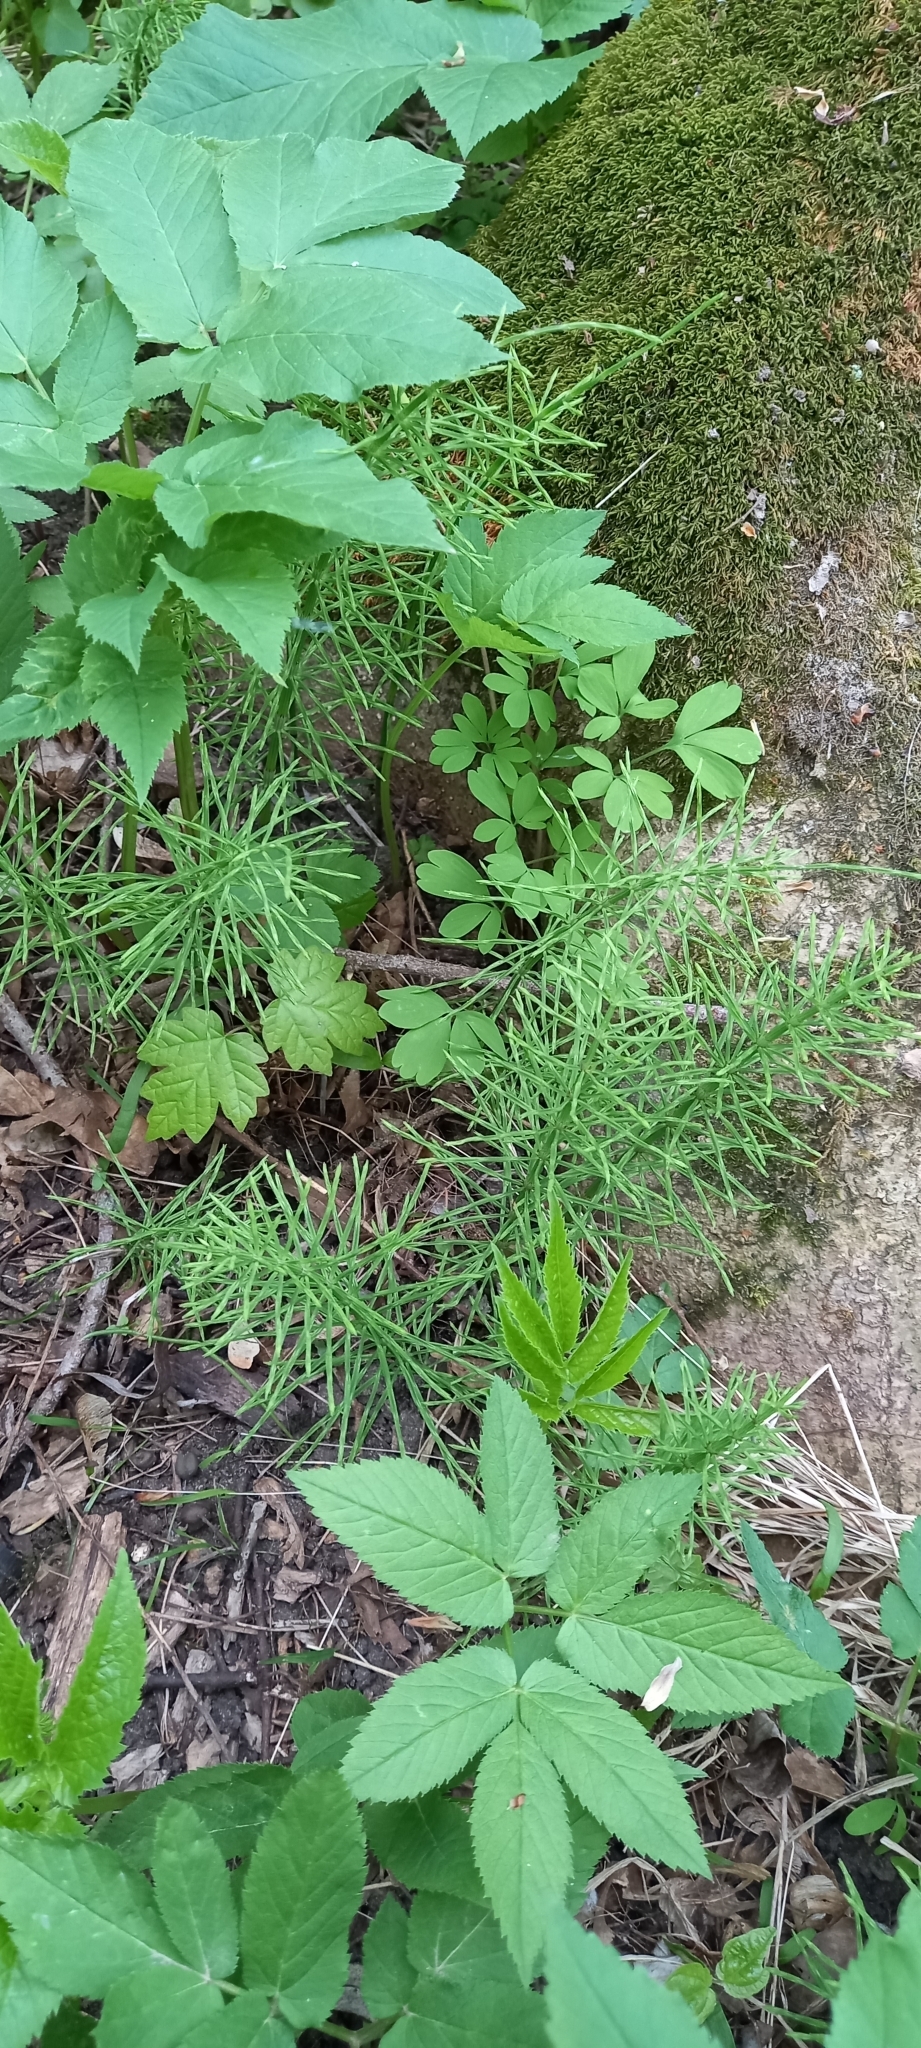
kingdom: Plantae
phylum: Tracheophyta
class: Polypodiopsida
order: Equisetales
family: Equisetaceae
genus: Equisetum
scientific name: Equisetum arvense
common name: Field horsetail
